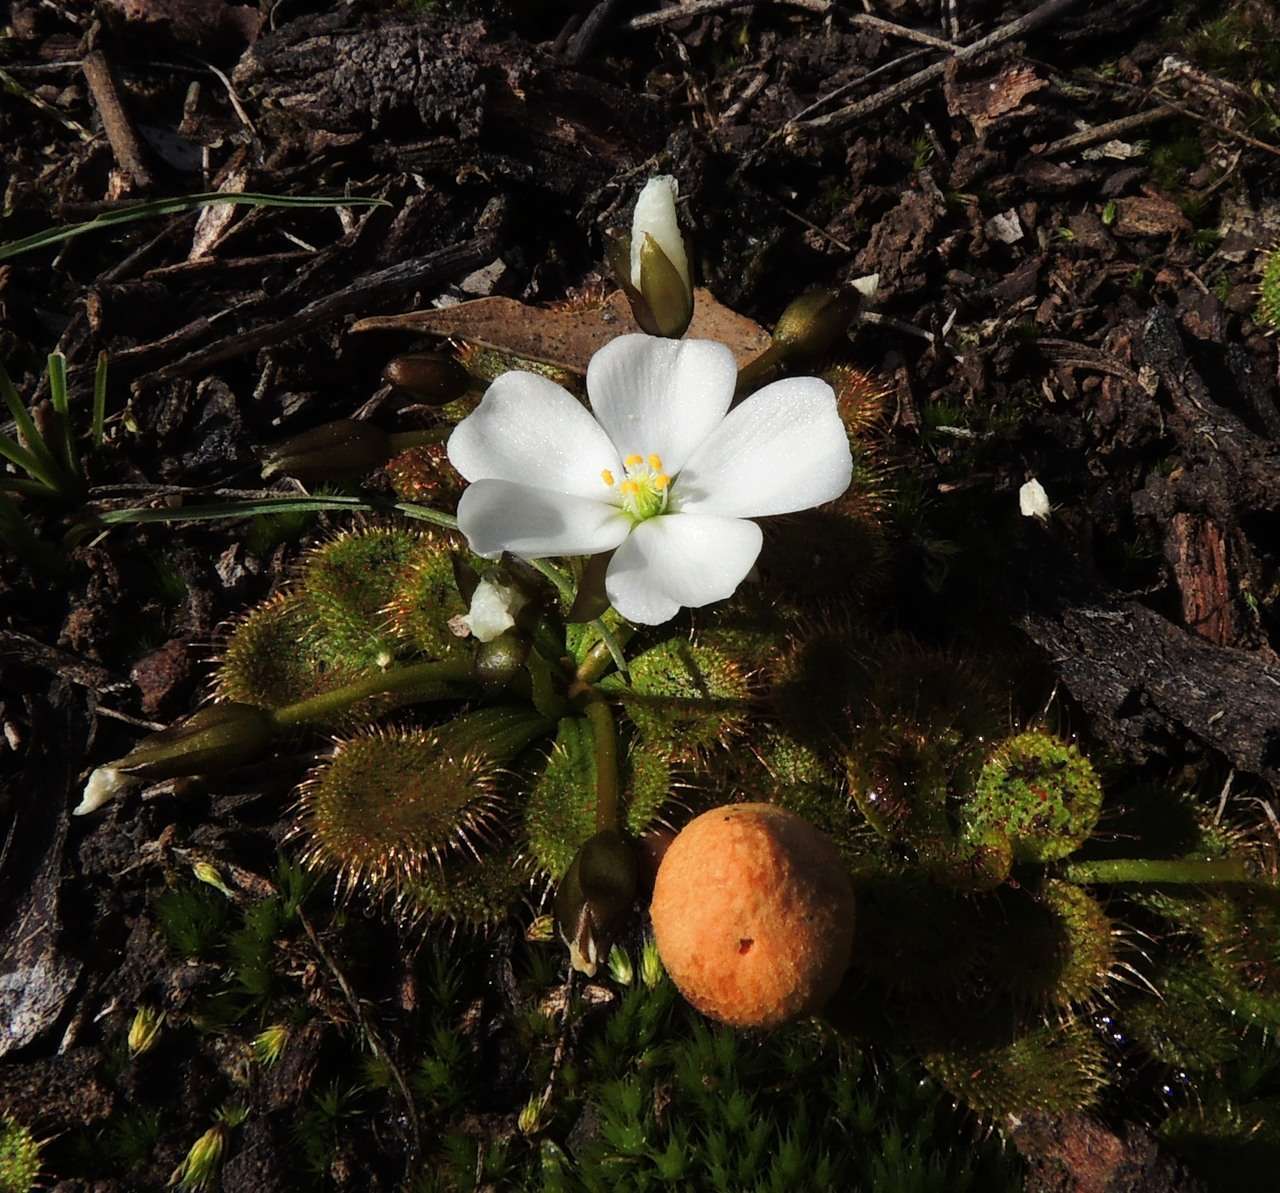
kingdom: Plantae
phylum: Tracheophyta
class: Magnoliopsida
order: Caryophyllales
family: Droseraceae
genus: Drosera
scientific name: Drosera aberrans
